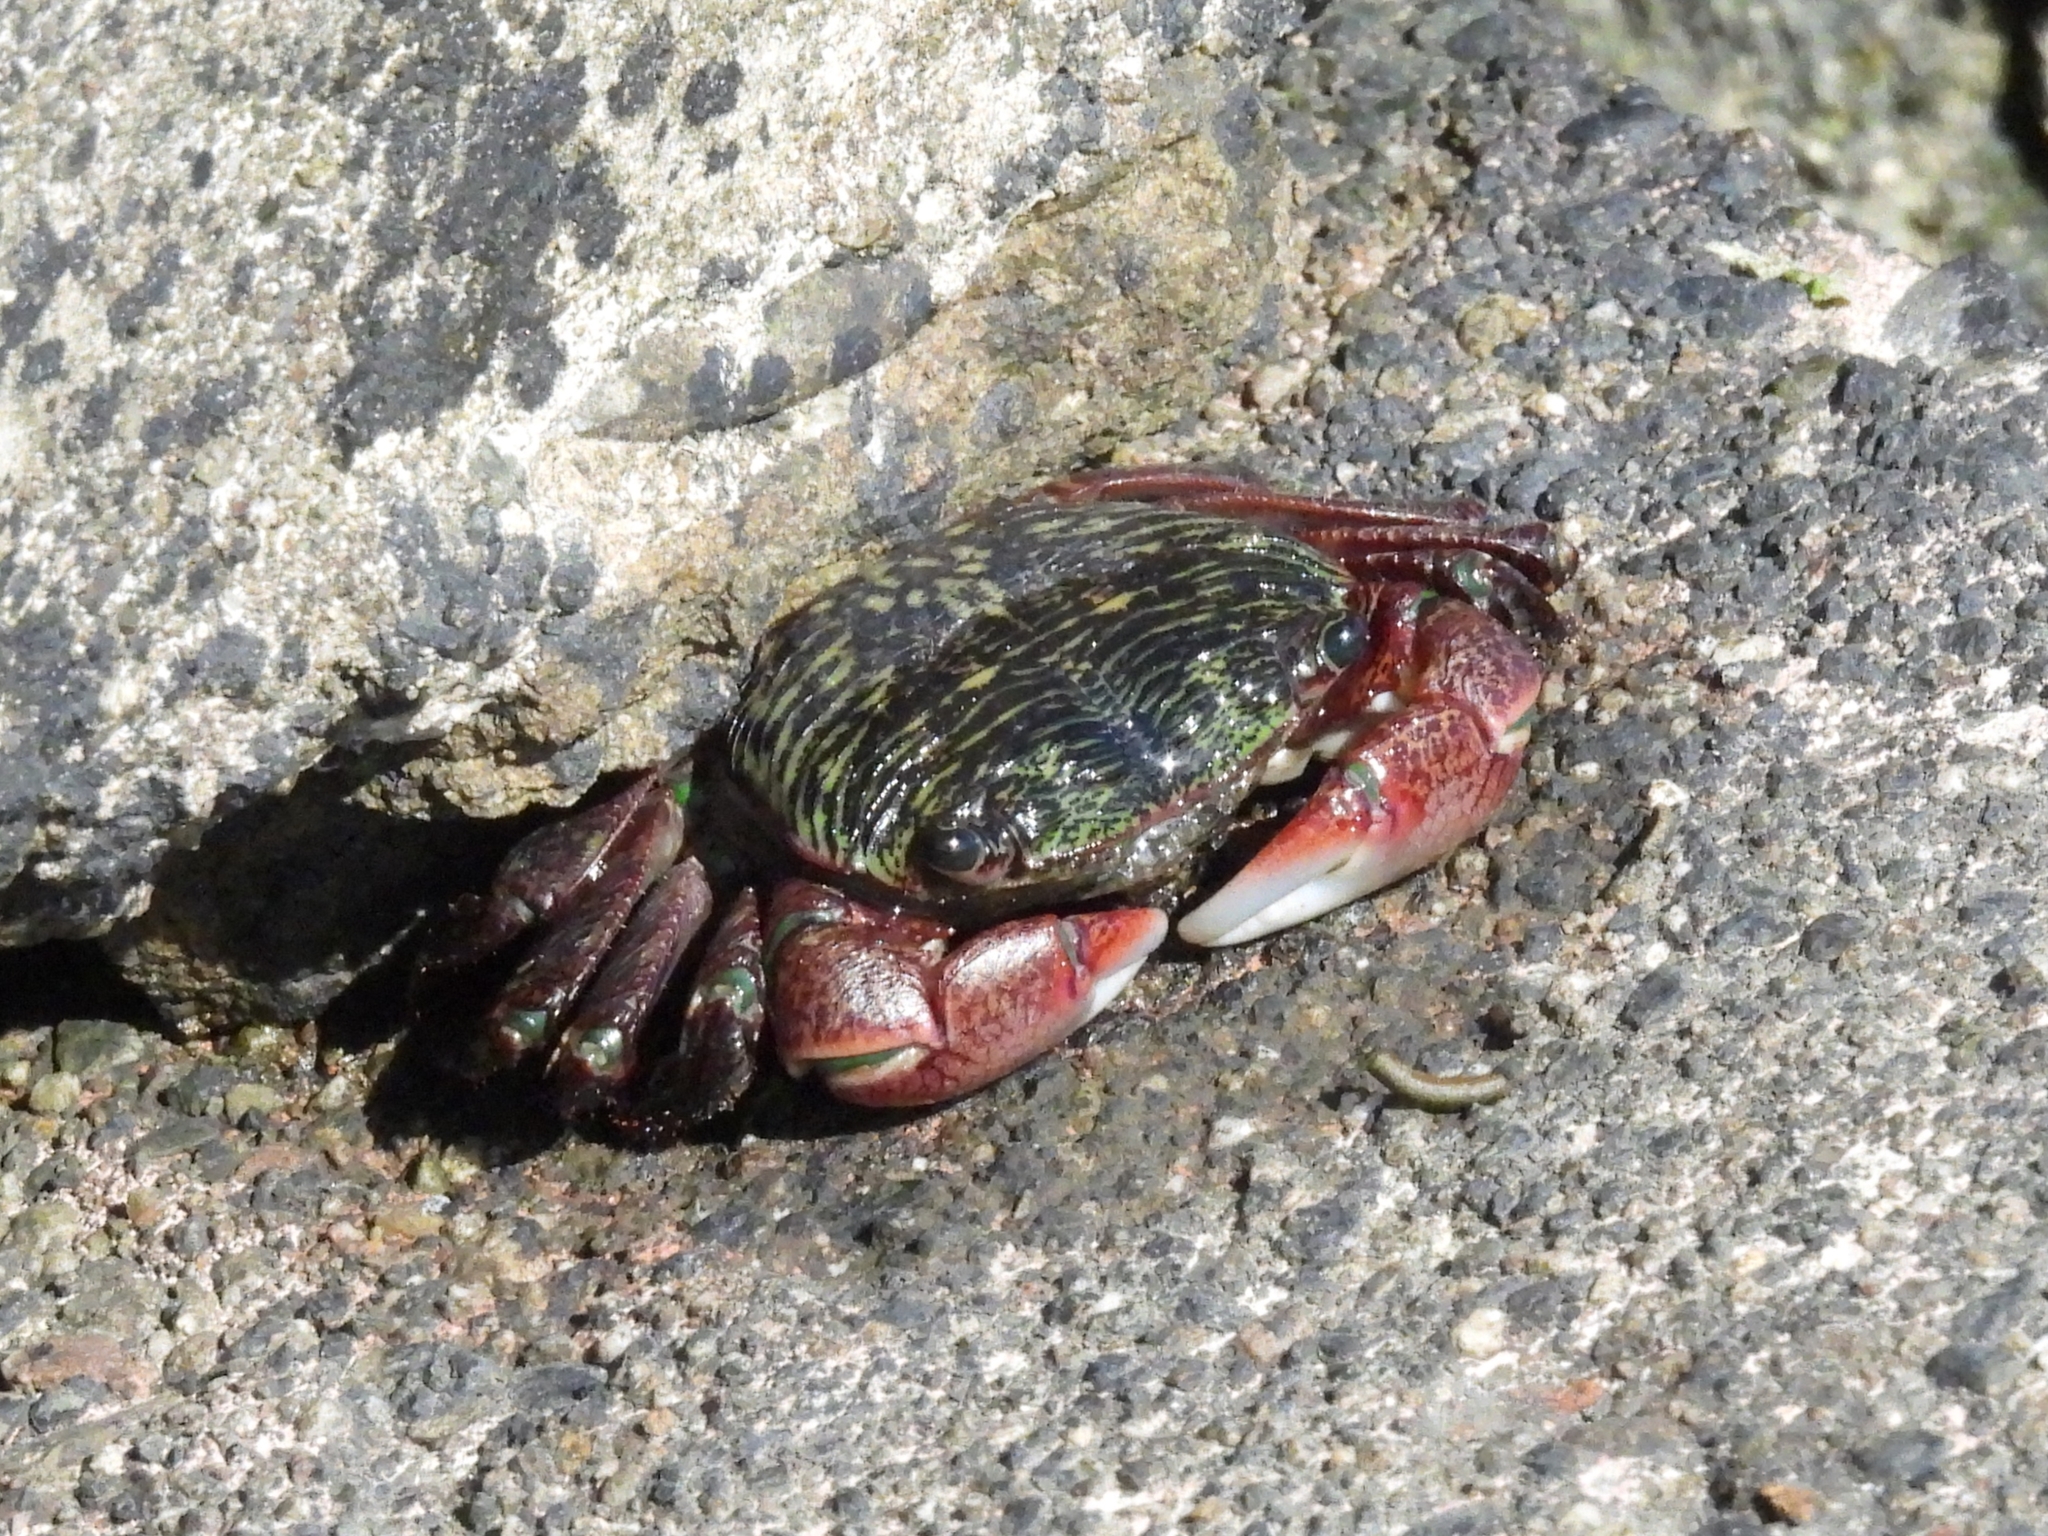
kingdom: Animalia
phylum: Arthropoda
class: Malacostraca
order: Decapoda
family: Grapsidae
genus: Pachygrapsus
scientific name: Pachygrapsus crassipes
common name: Striped shore crab
